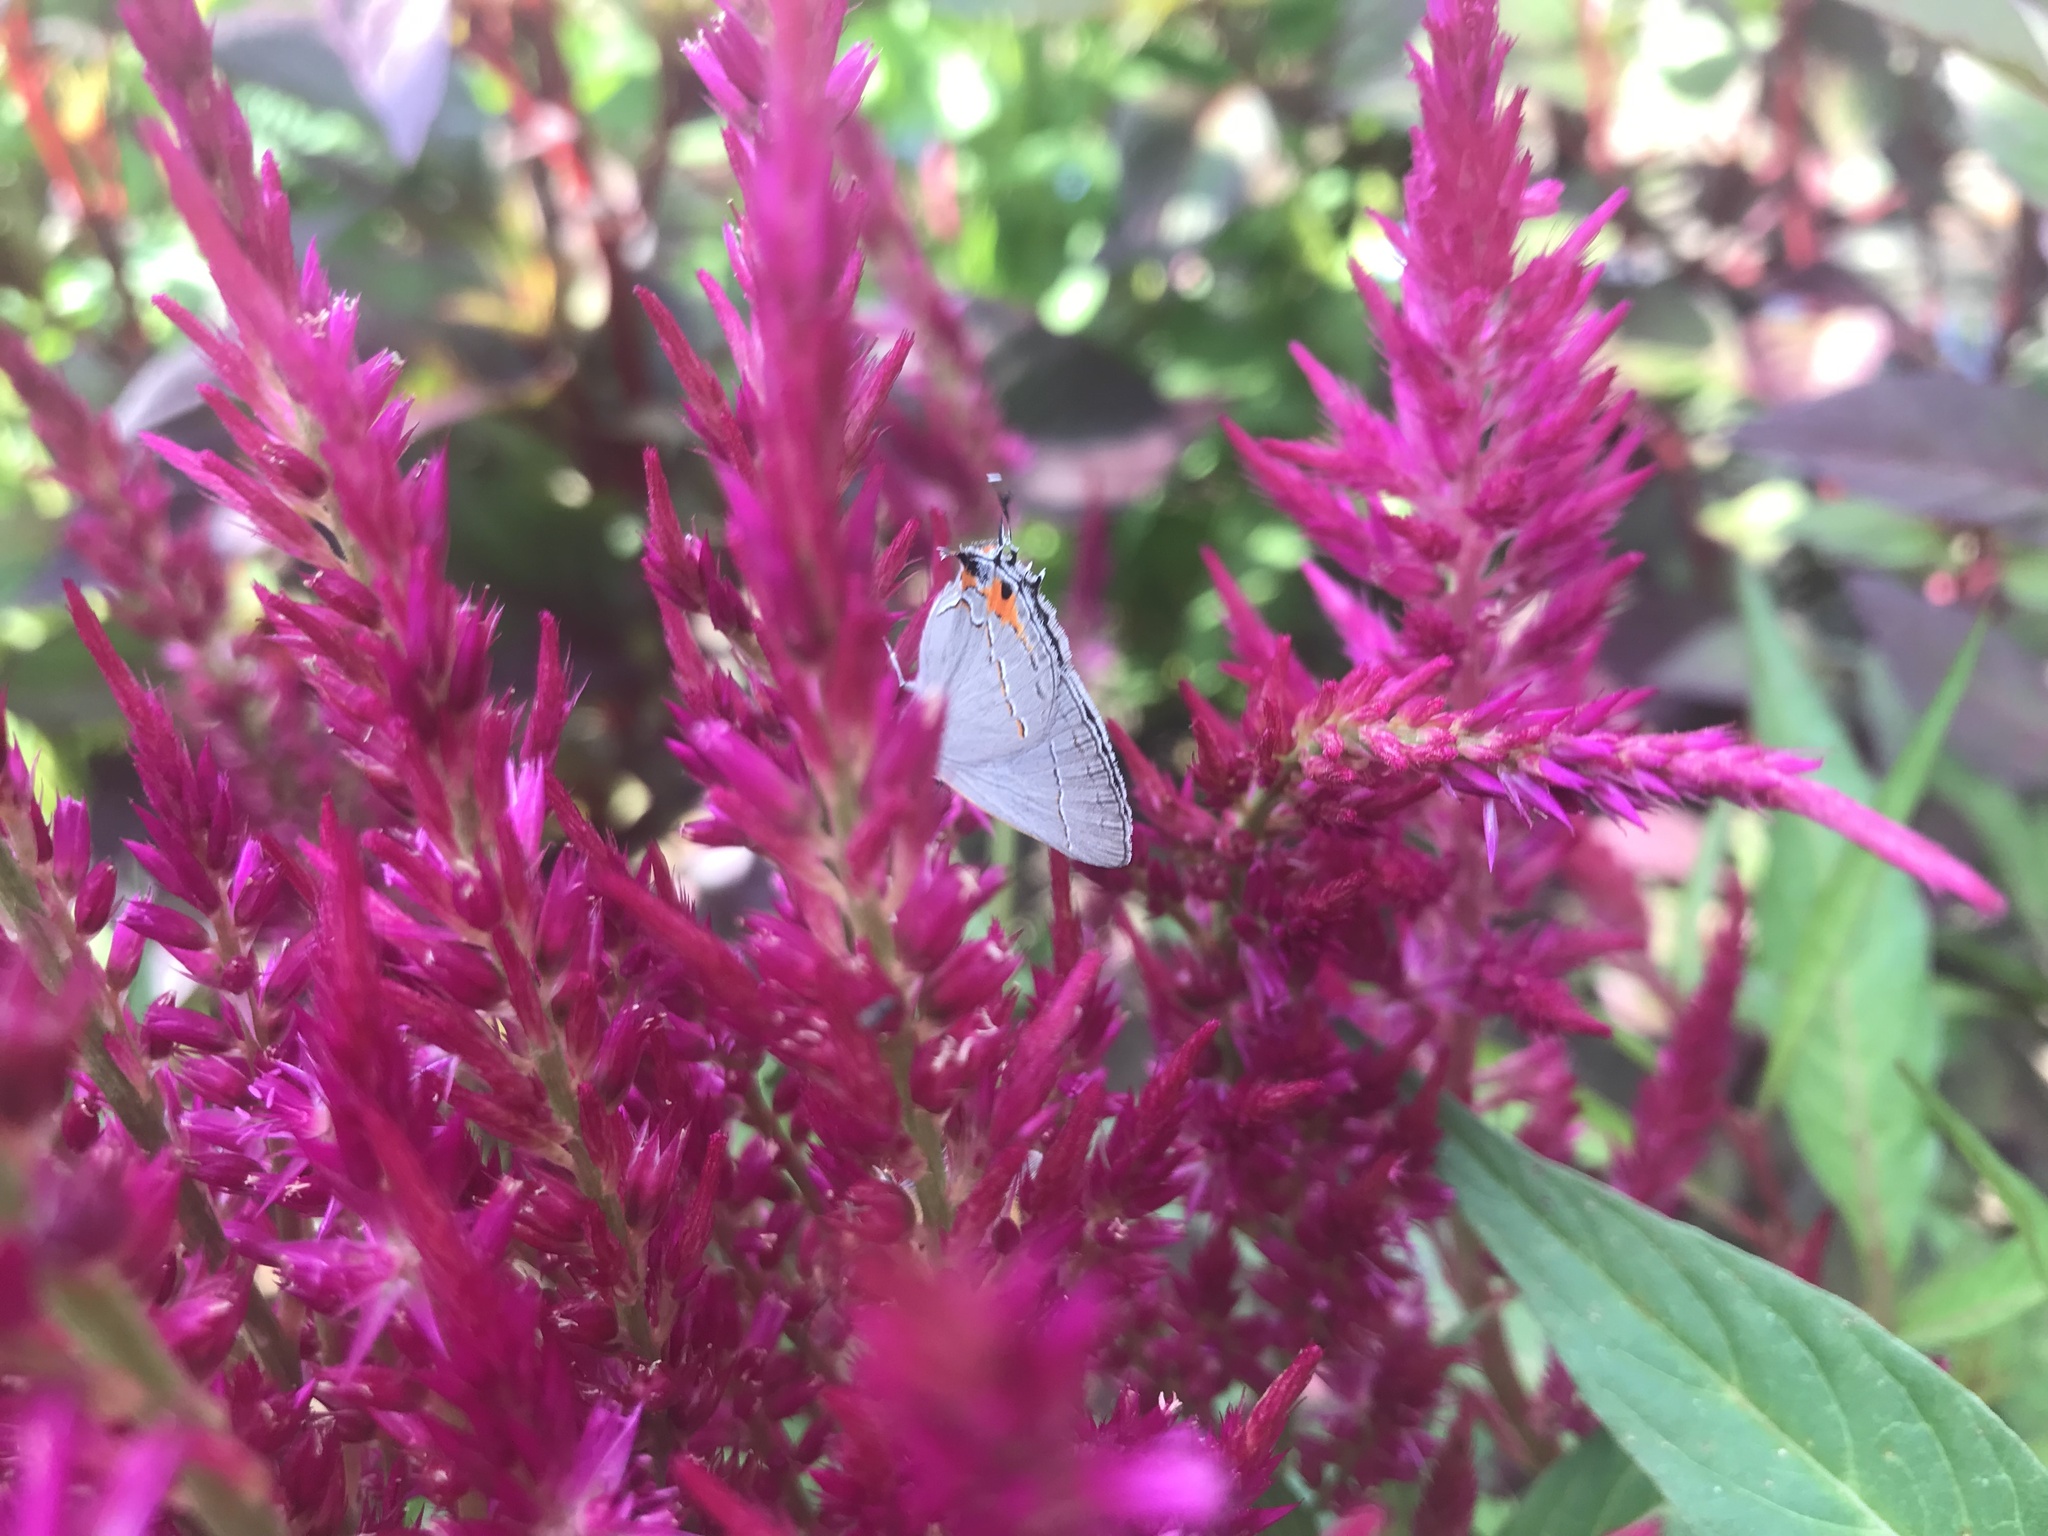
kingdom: Animalia
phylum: Arthropoda
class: Insecta
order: Lepidoptera
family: Lycaenidae
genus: Strymon
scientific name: Strymon melinus
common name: Gray hairstreak
